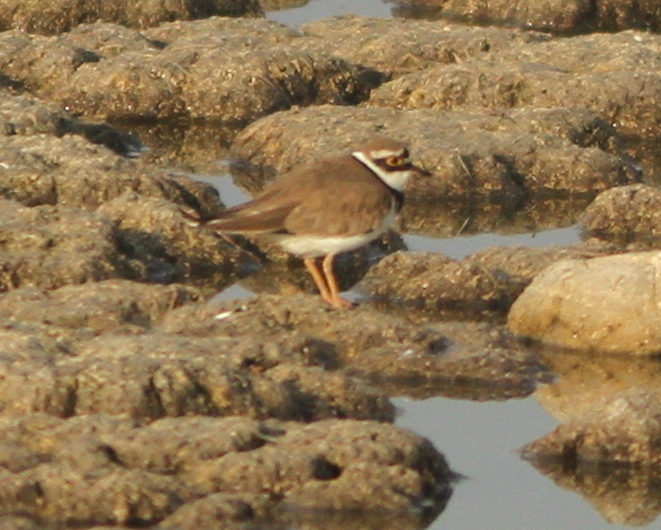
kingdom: Animalia
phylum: Chordata
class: Aves
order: Charadriiformes
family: Charadriidae
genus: Charadrius
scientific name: Charadrius dubius
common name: Little ringed plover
